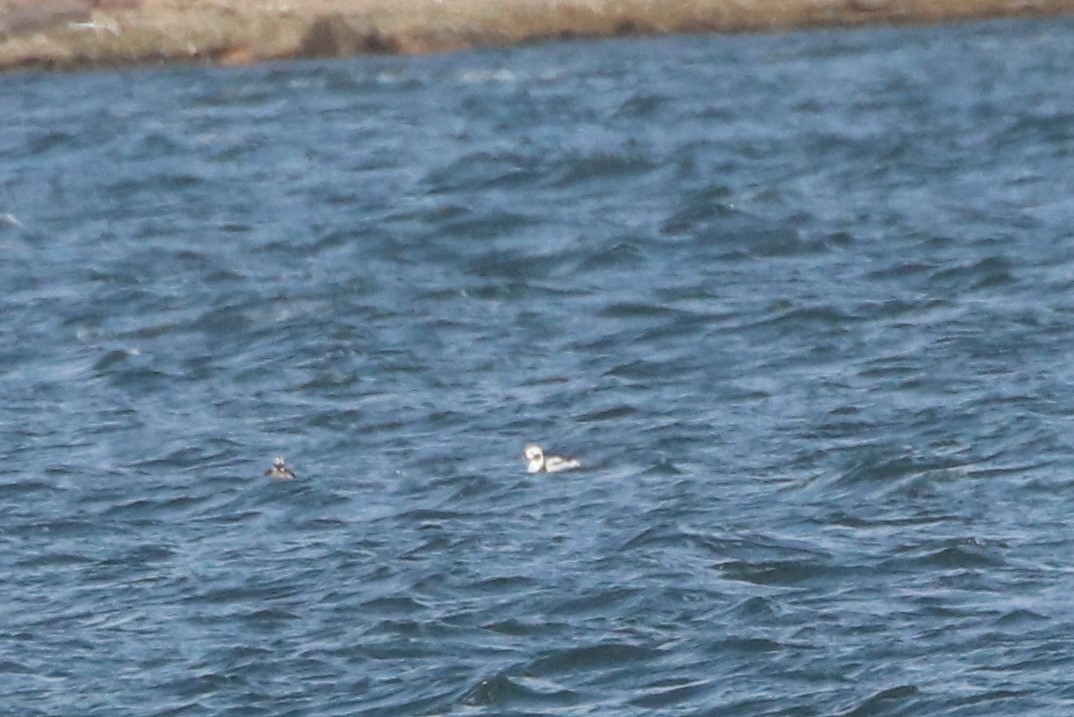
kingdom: Animalia
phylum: Chordata
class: Aves
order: Anseriformes
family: Anatidae
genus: Clangula
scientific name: Clangula hyemalis
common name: Long-tailed duck
